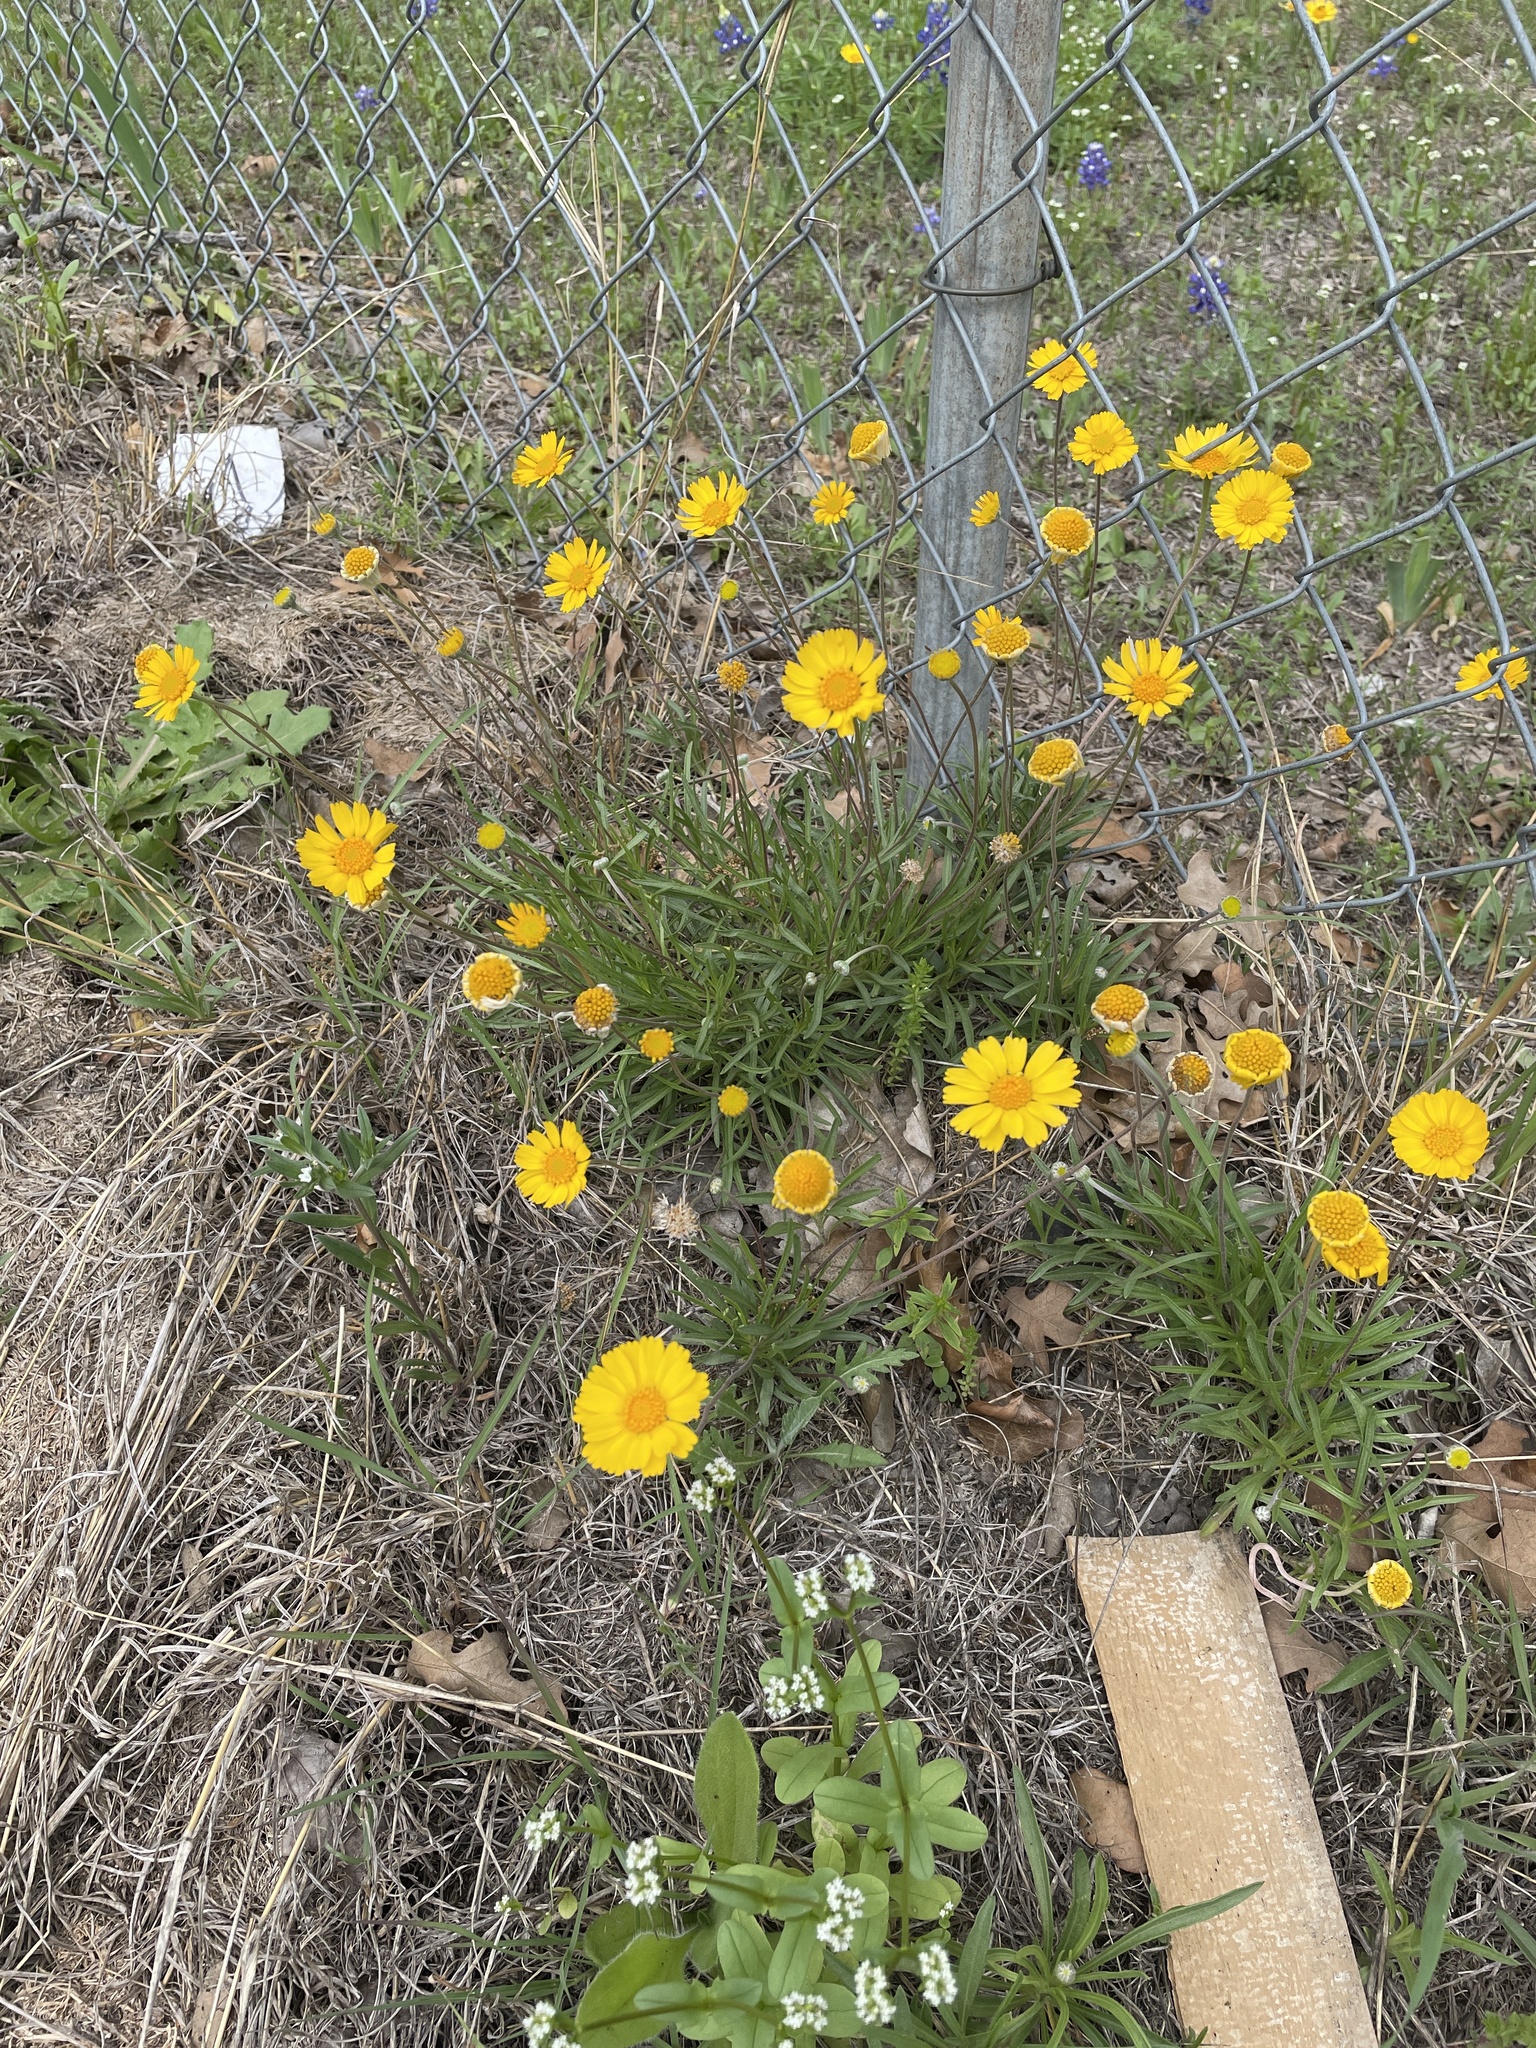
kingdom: Plantae
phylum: Tracheophyta
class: Magnoliopsida
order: Asterales
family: Asteraceae
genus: Tetraneuris
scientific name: Tetraneuris scaposa
